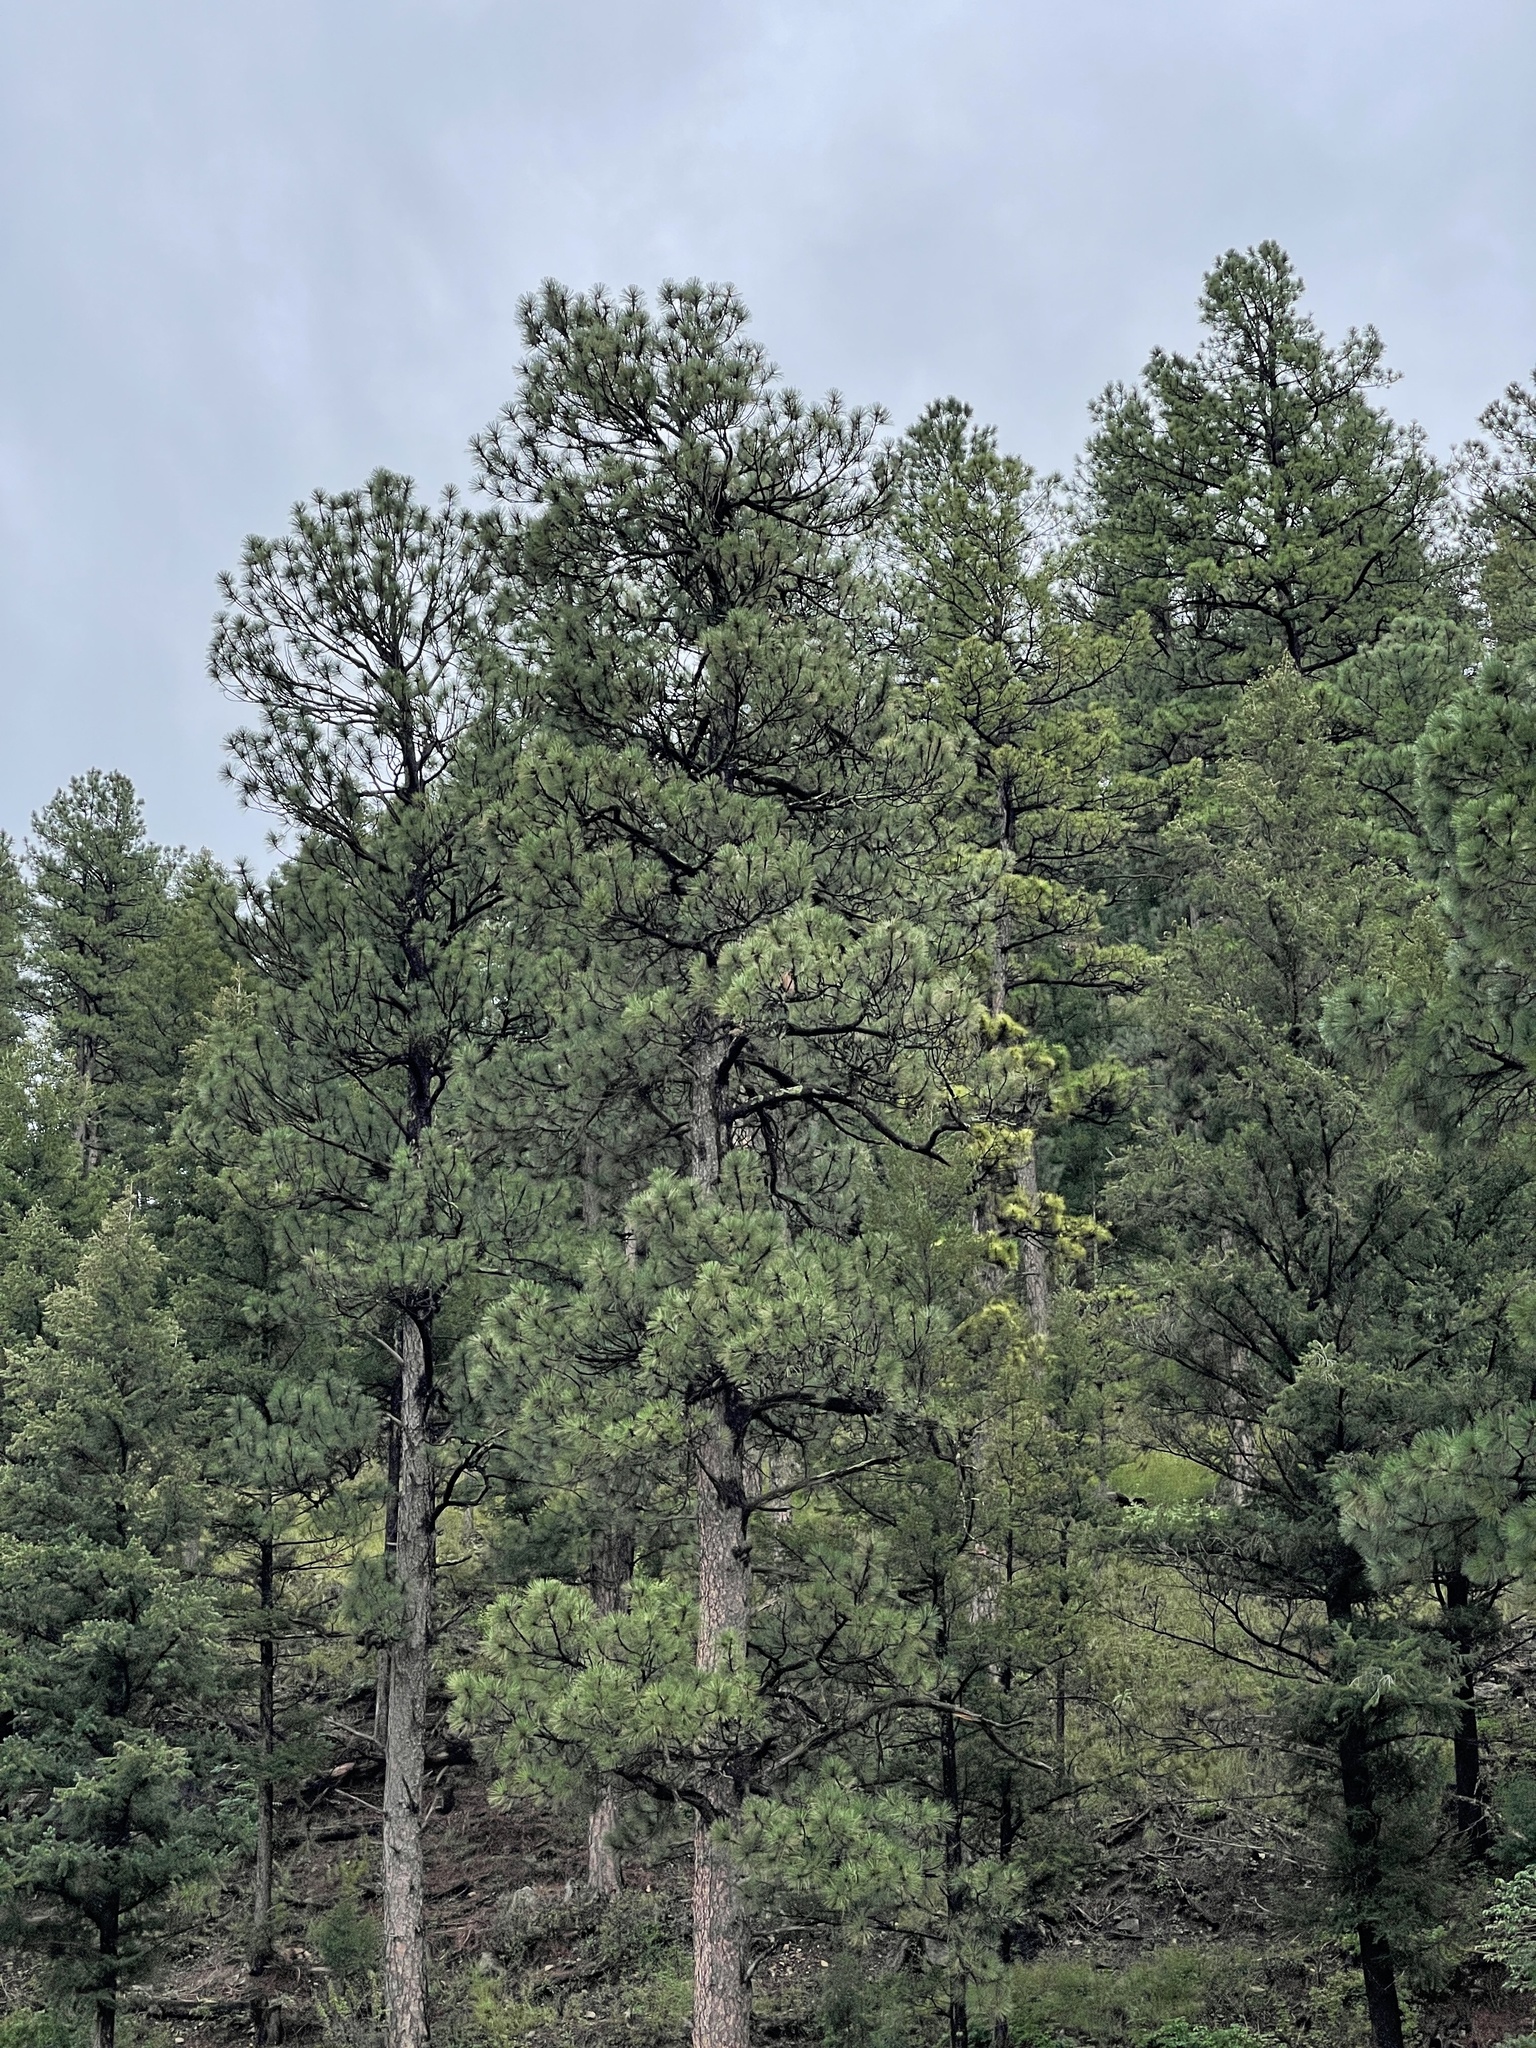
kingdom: Plantae
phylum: Tracheophyta
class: Pinopsida
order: Pinales
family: Pinaceae
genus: Pinus
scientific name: Pinus ponderosa
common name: Western yellow-pine
